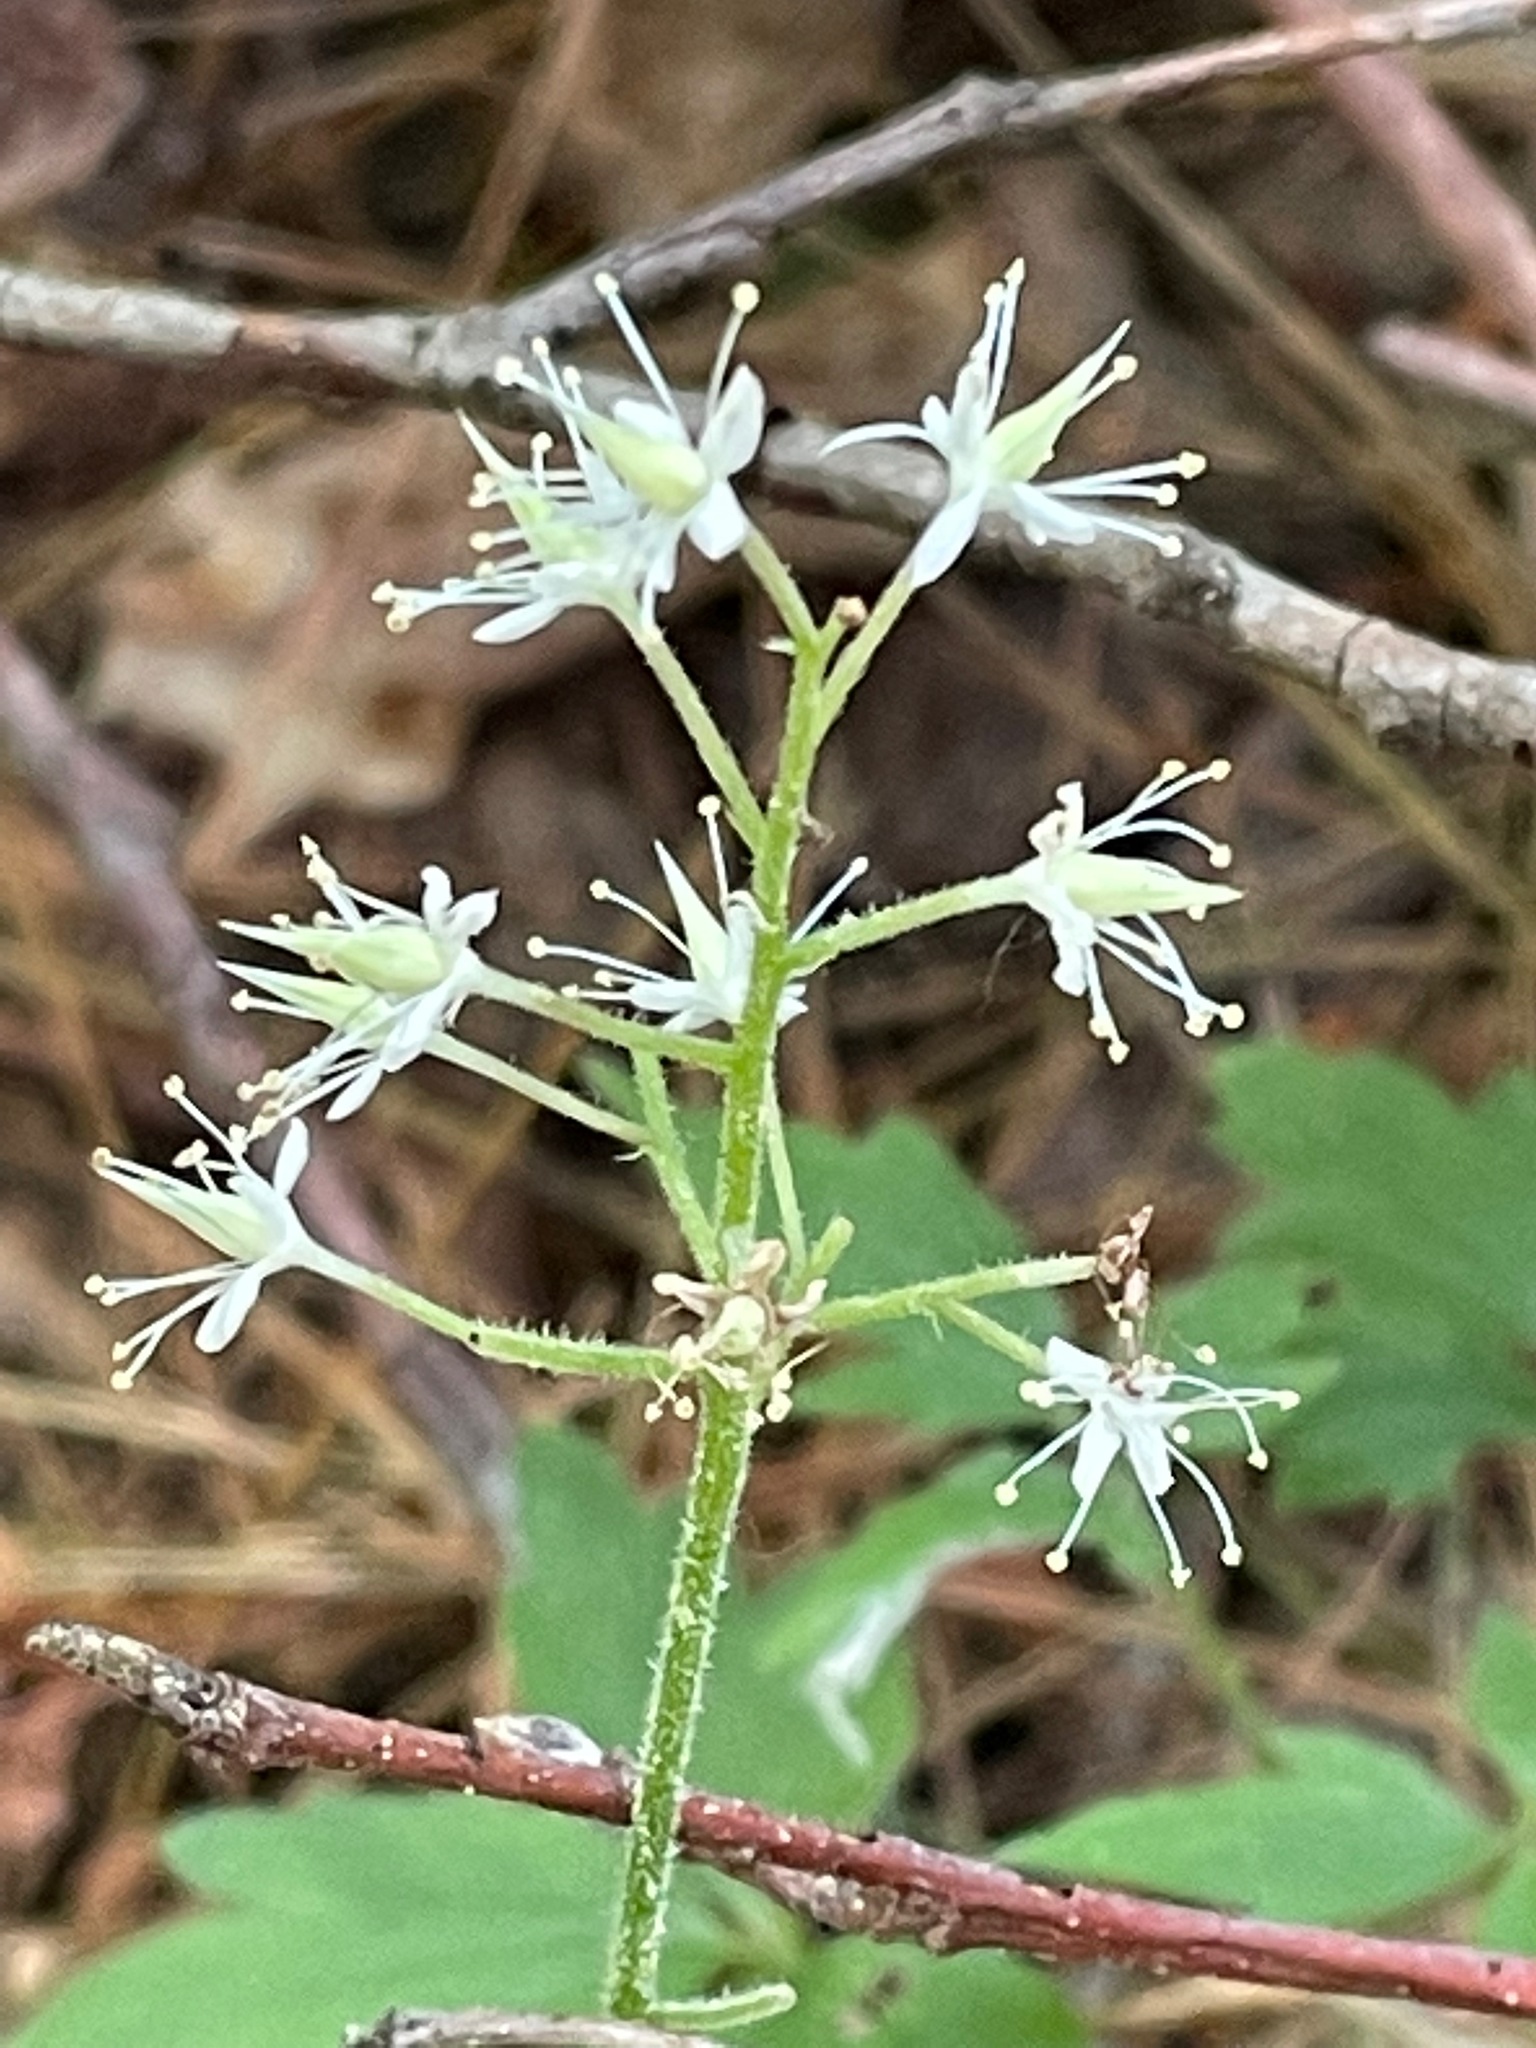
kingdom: Plantae
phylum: Tracheophyta
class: Magnoliopsida
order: Saxifragales
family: Saxifragaceae
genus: Tiarella
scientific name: Tiarella stolonifera
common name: Stoloniferous foamflower
